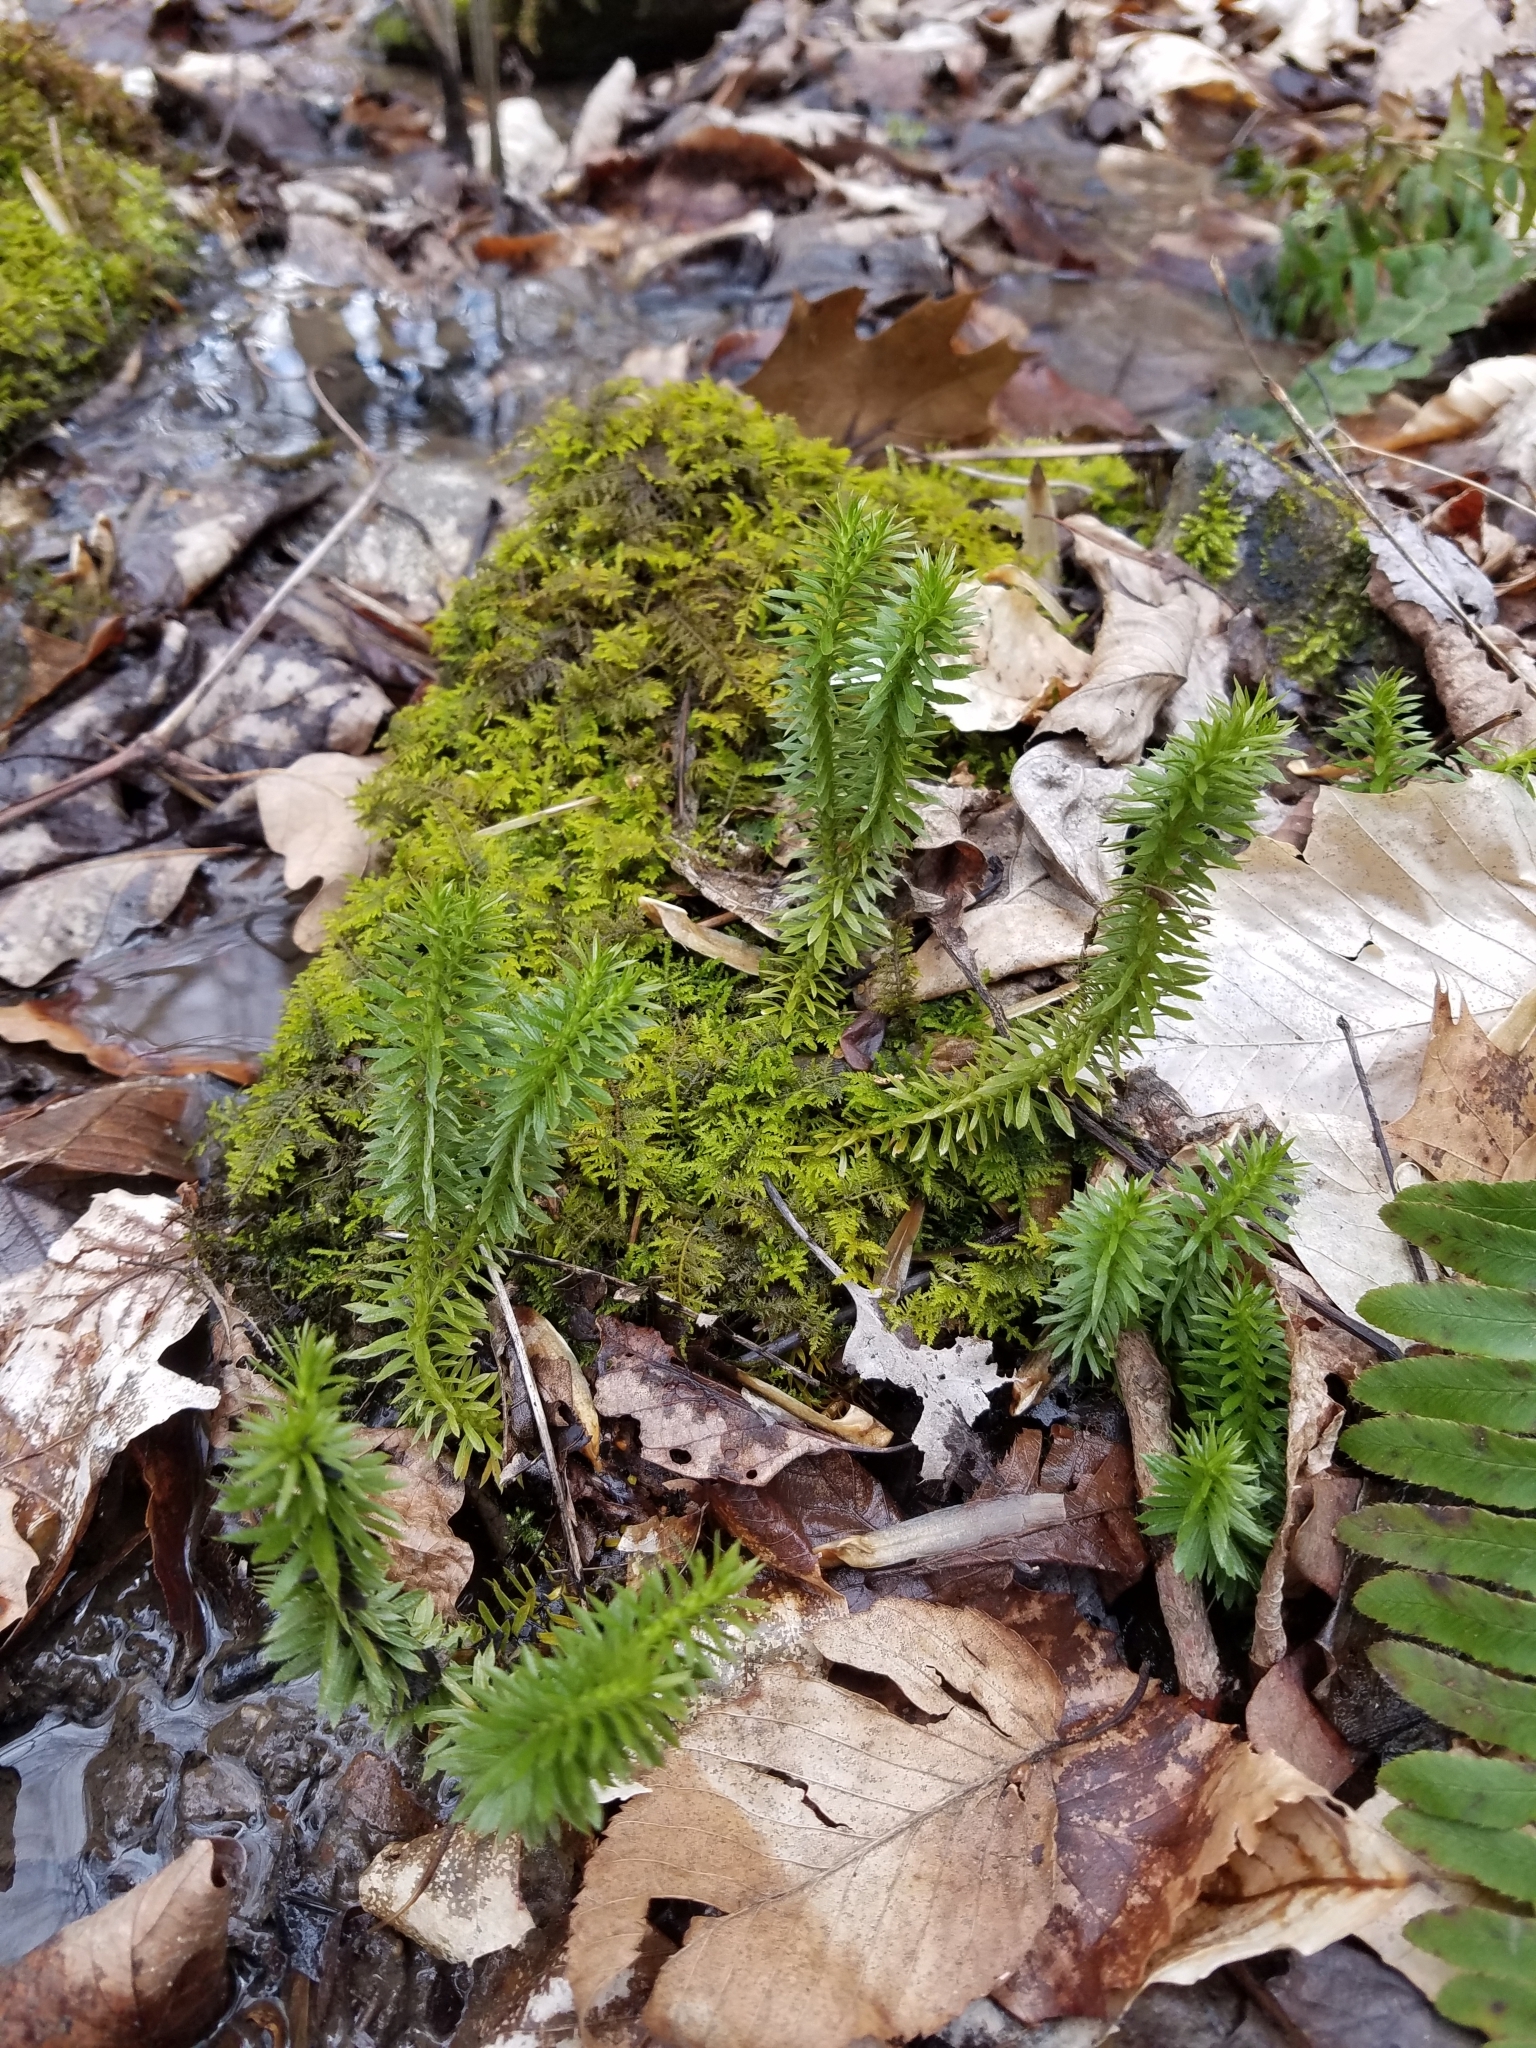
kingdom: Plantae
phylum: Tracheophyta
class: Lycopodiopsida
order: Lycopodiales
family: Lycopodiaceae
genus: Huperzia
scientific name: Huperzia lucidula
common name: Shining clubmoss
